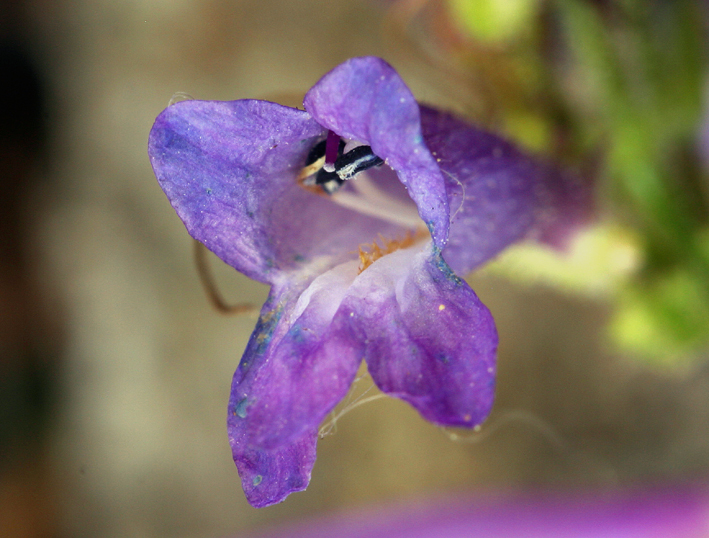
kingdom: Plantae
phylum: Tracheophyta
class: Magnoliopsida
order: Lamiales
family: Plantaginaceae
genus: Penstemon
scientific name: Penstemon gracilentus
